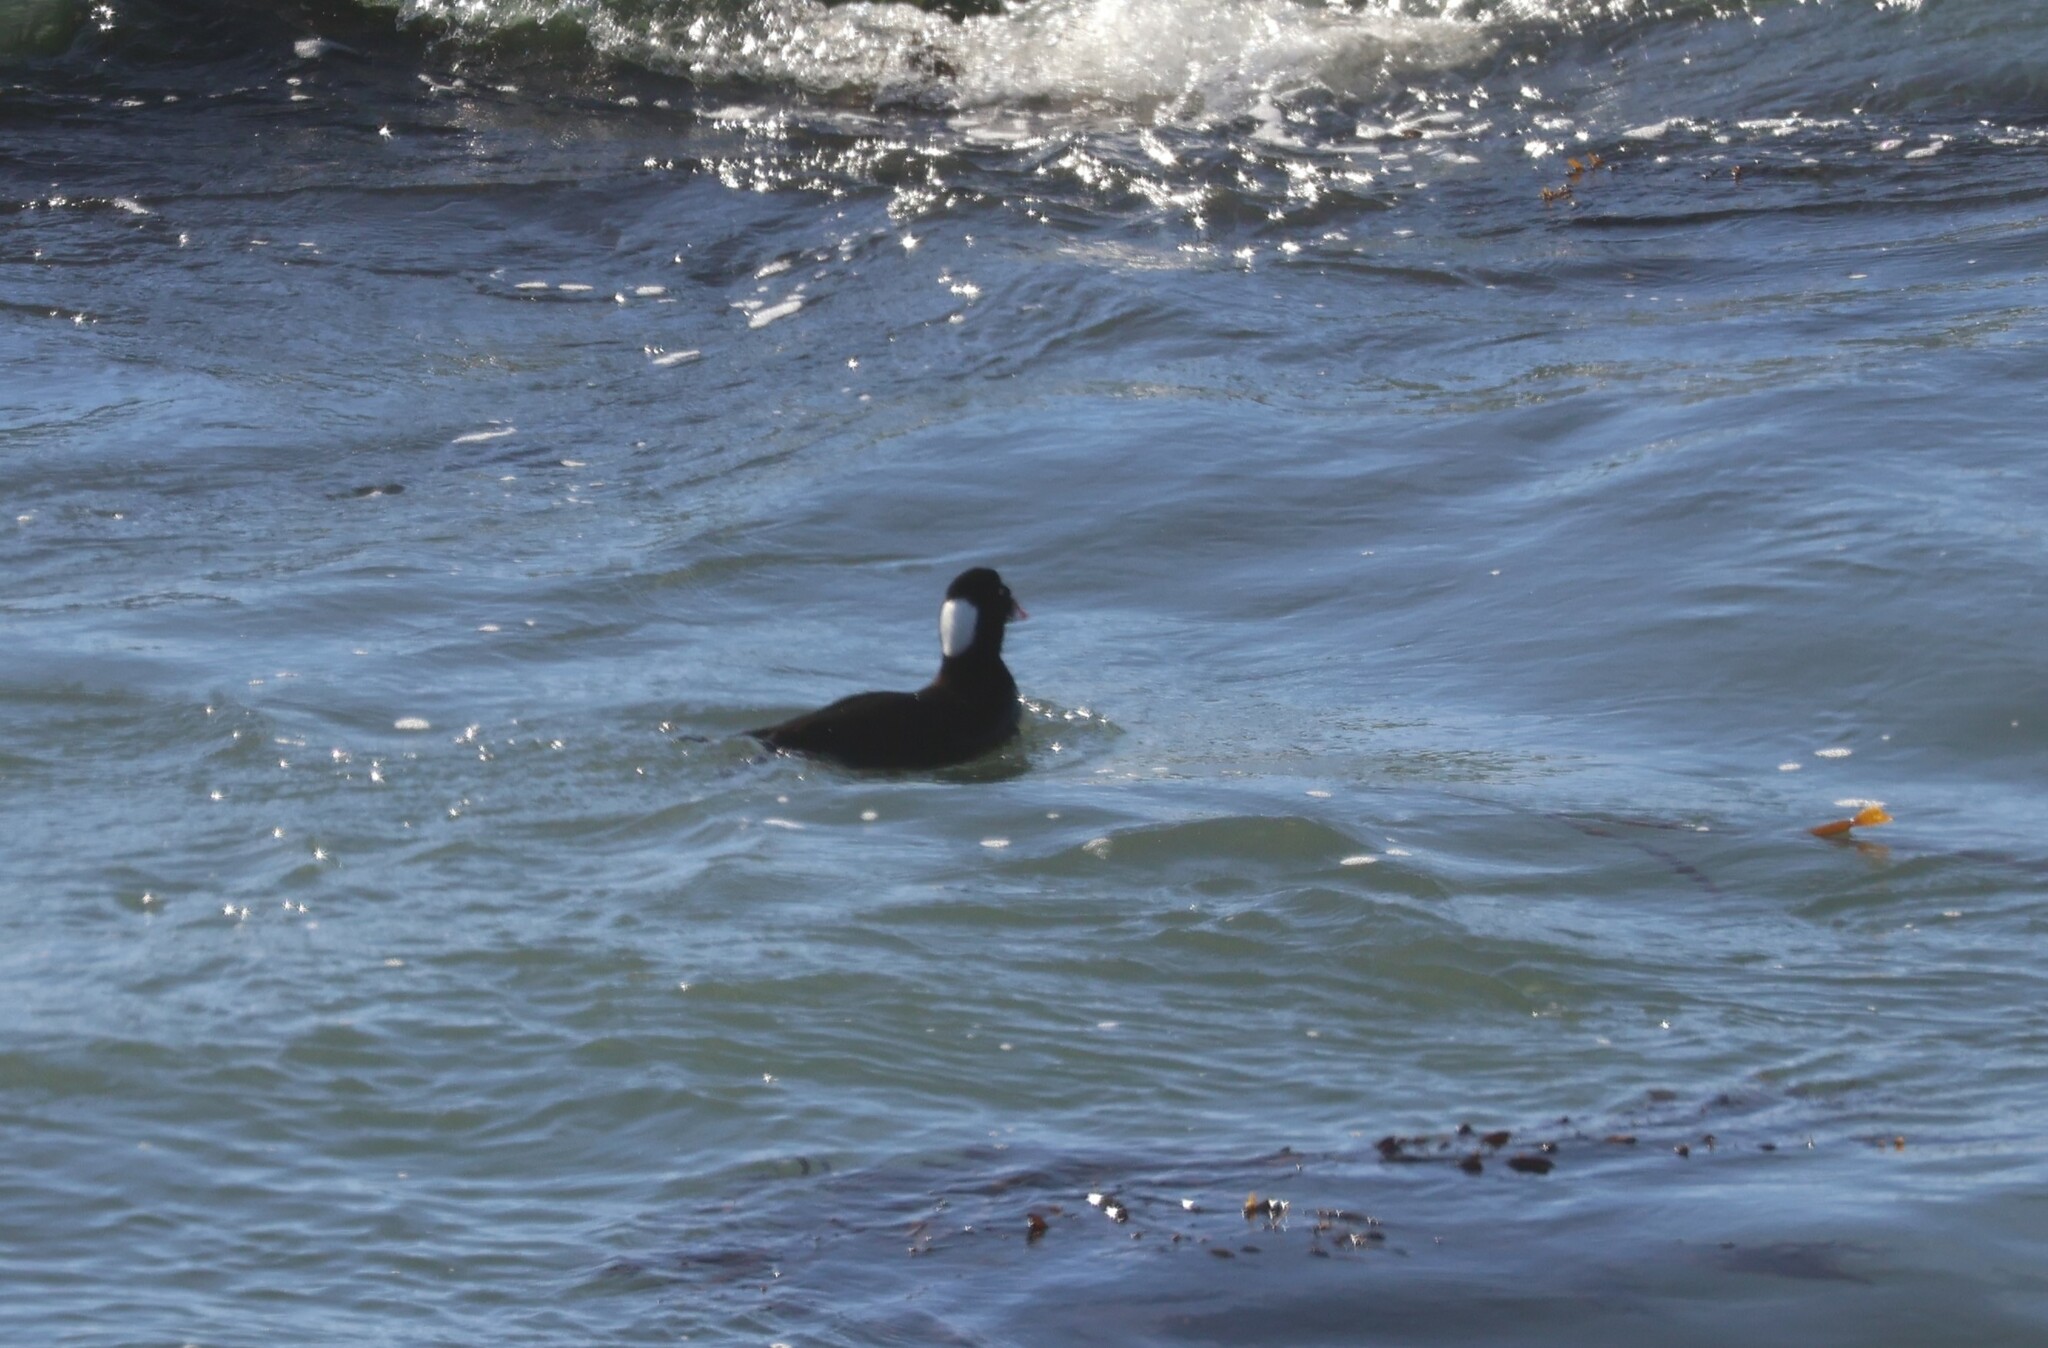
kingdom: Animalia
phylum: Chordata
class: Aves
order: Anseriformes
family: Anatidae
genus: Melanitta
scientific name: Melanitta perspicillata
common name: Surf scoter
